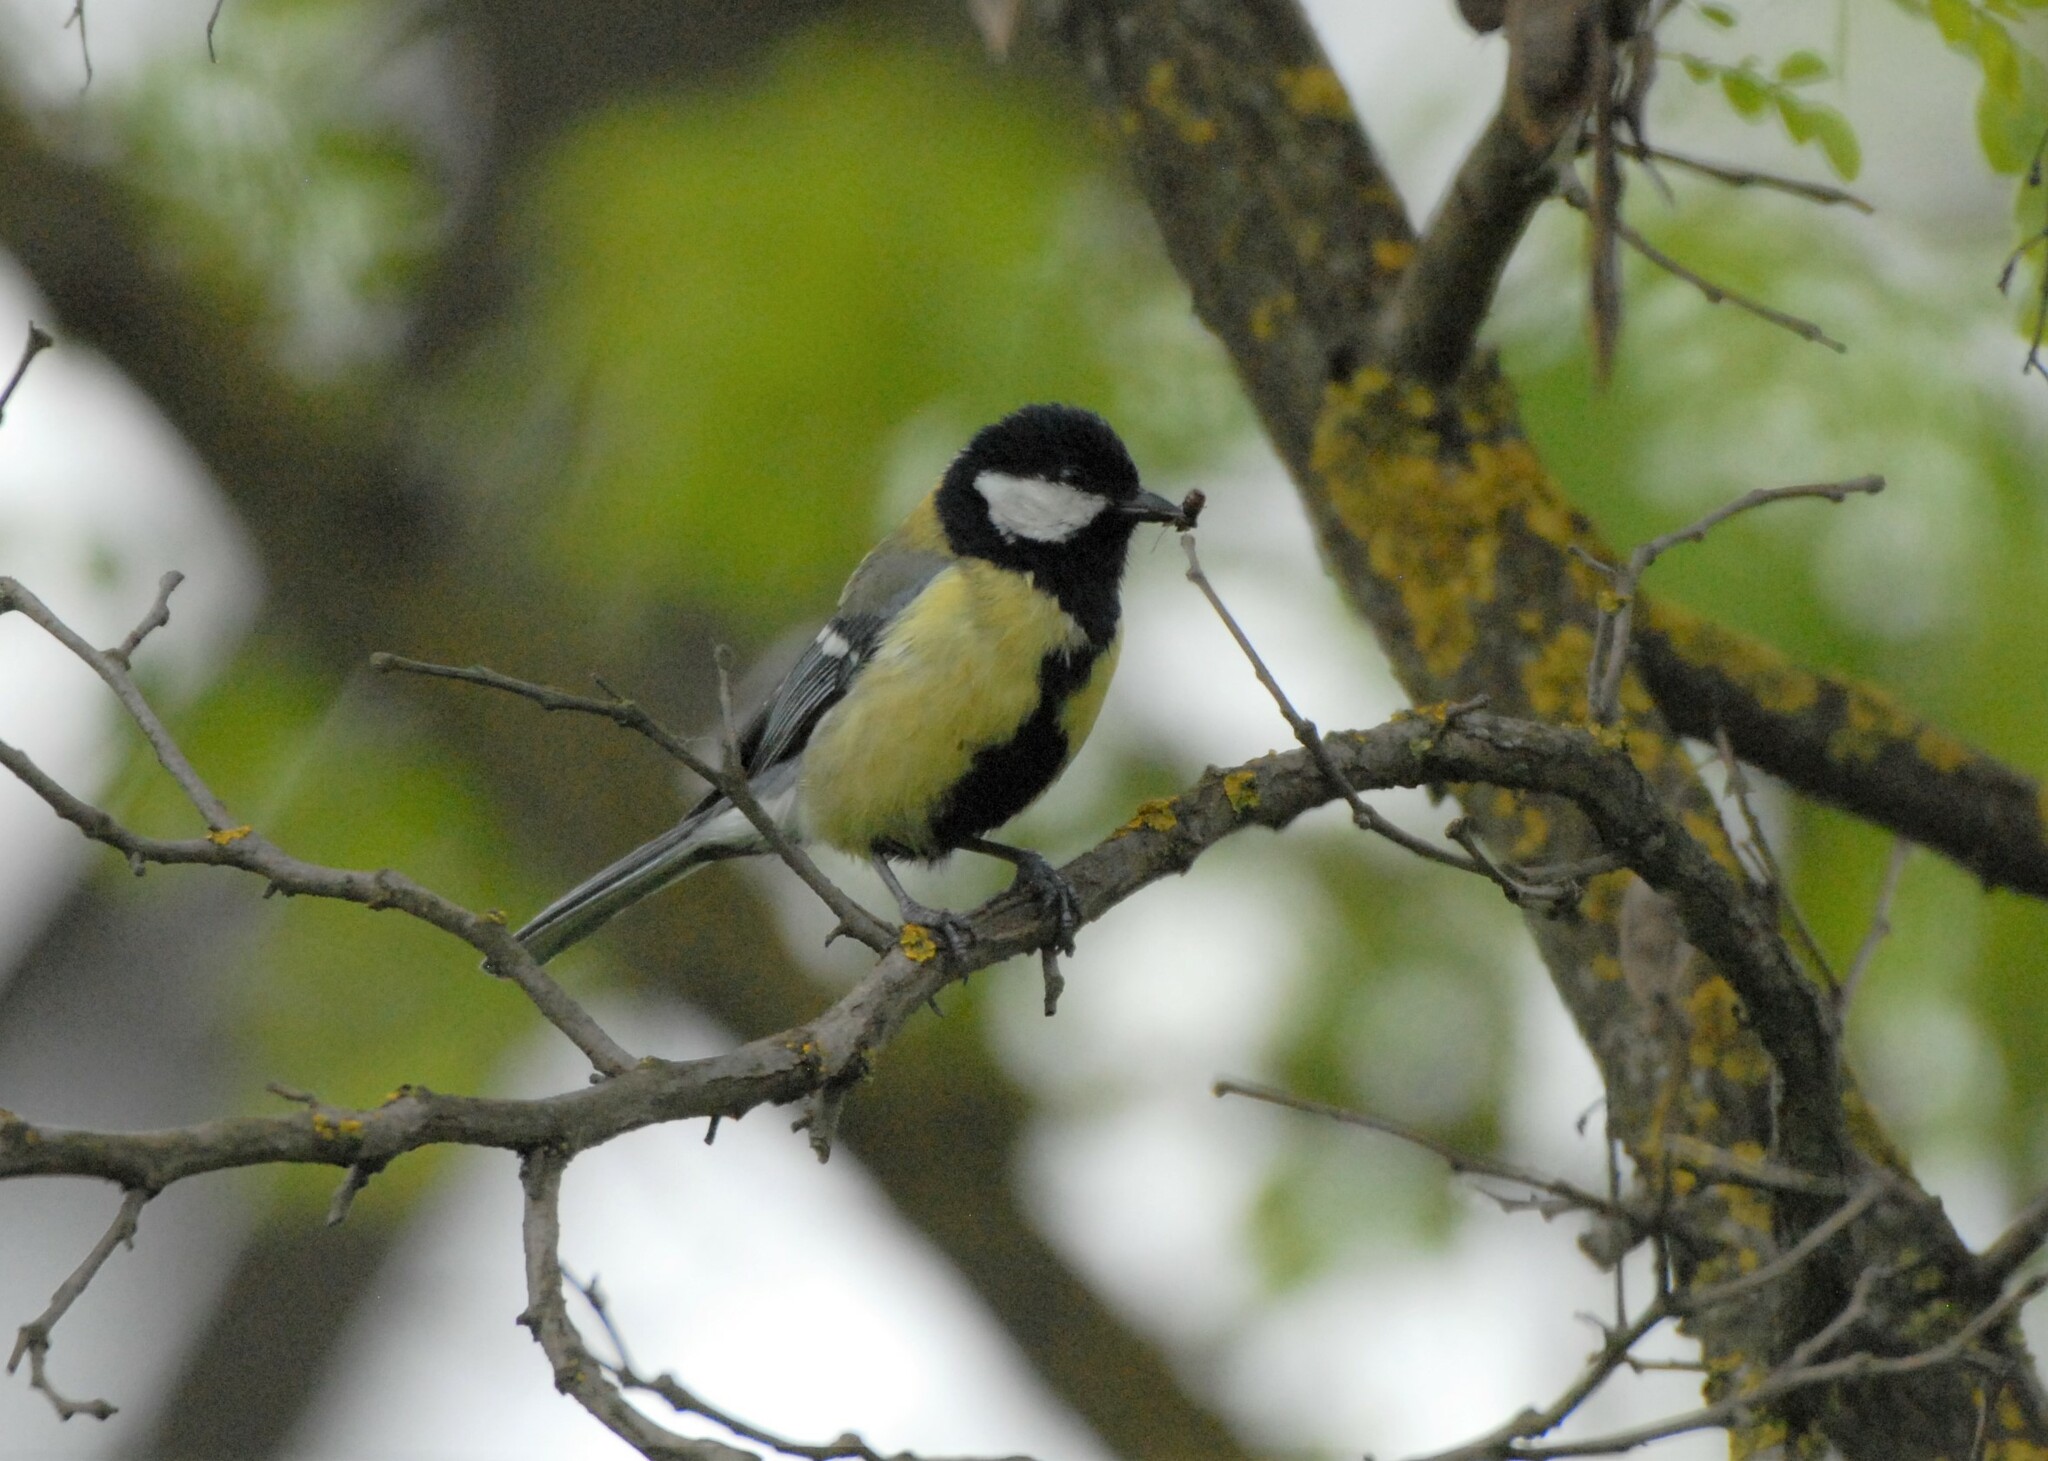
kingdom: Animalia
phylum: Chordata
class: Aves
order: Passeriformes
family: Paridae
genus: Parus
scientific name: Parus major
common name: Great tit
